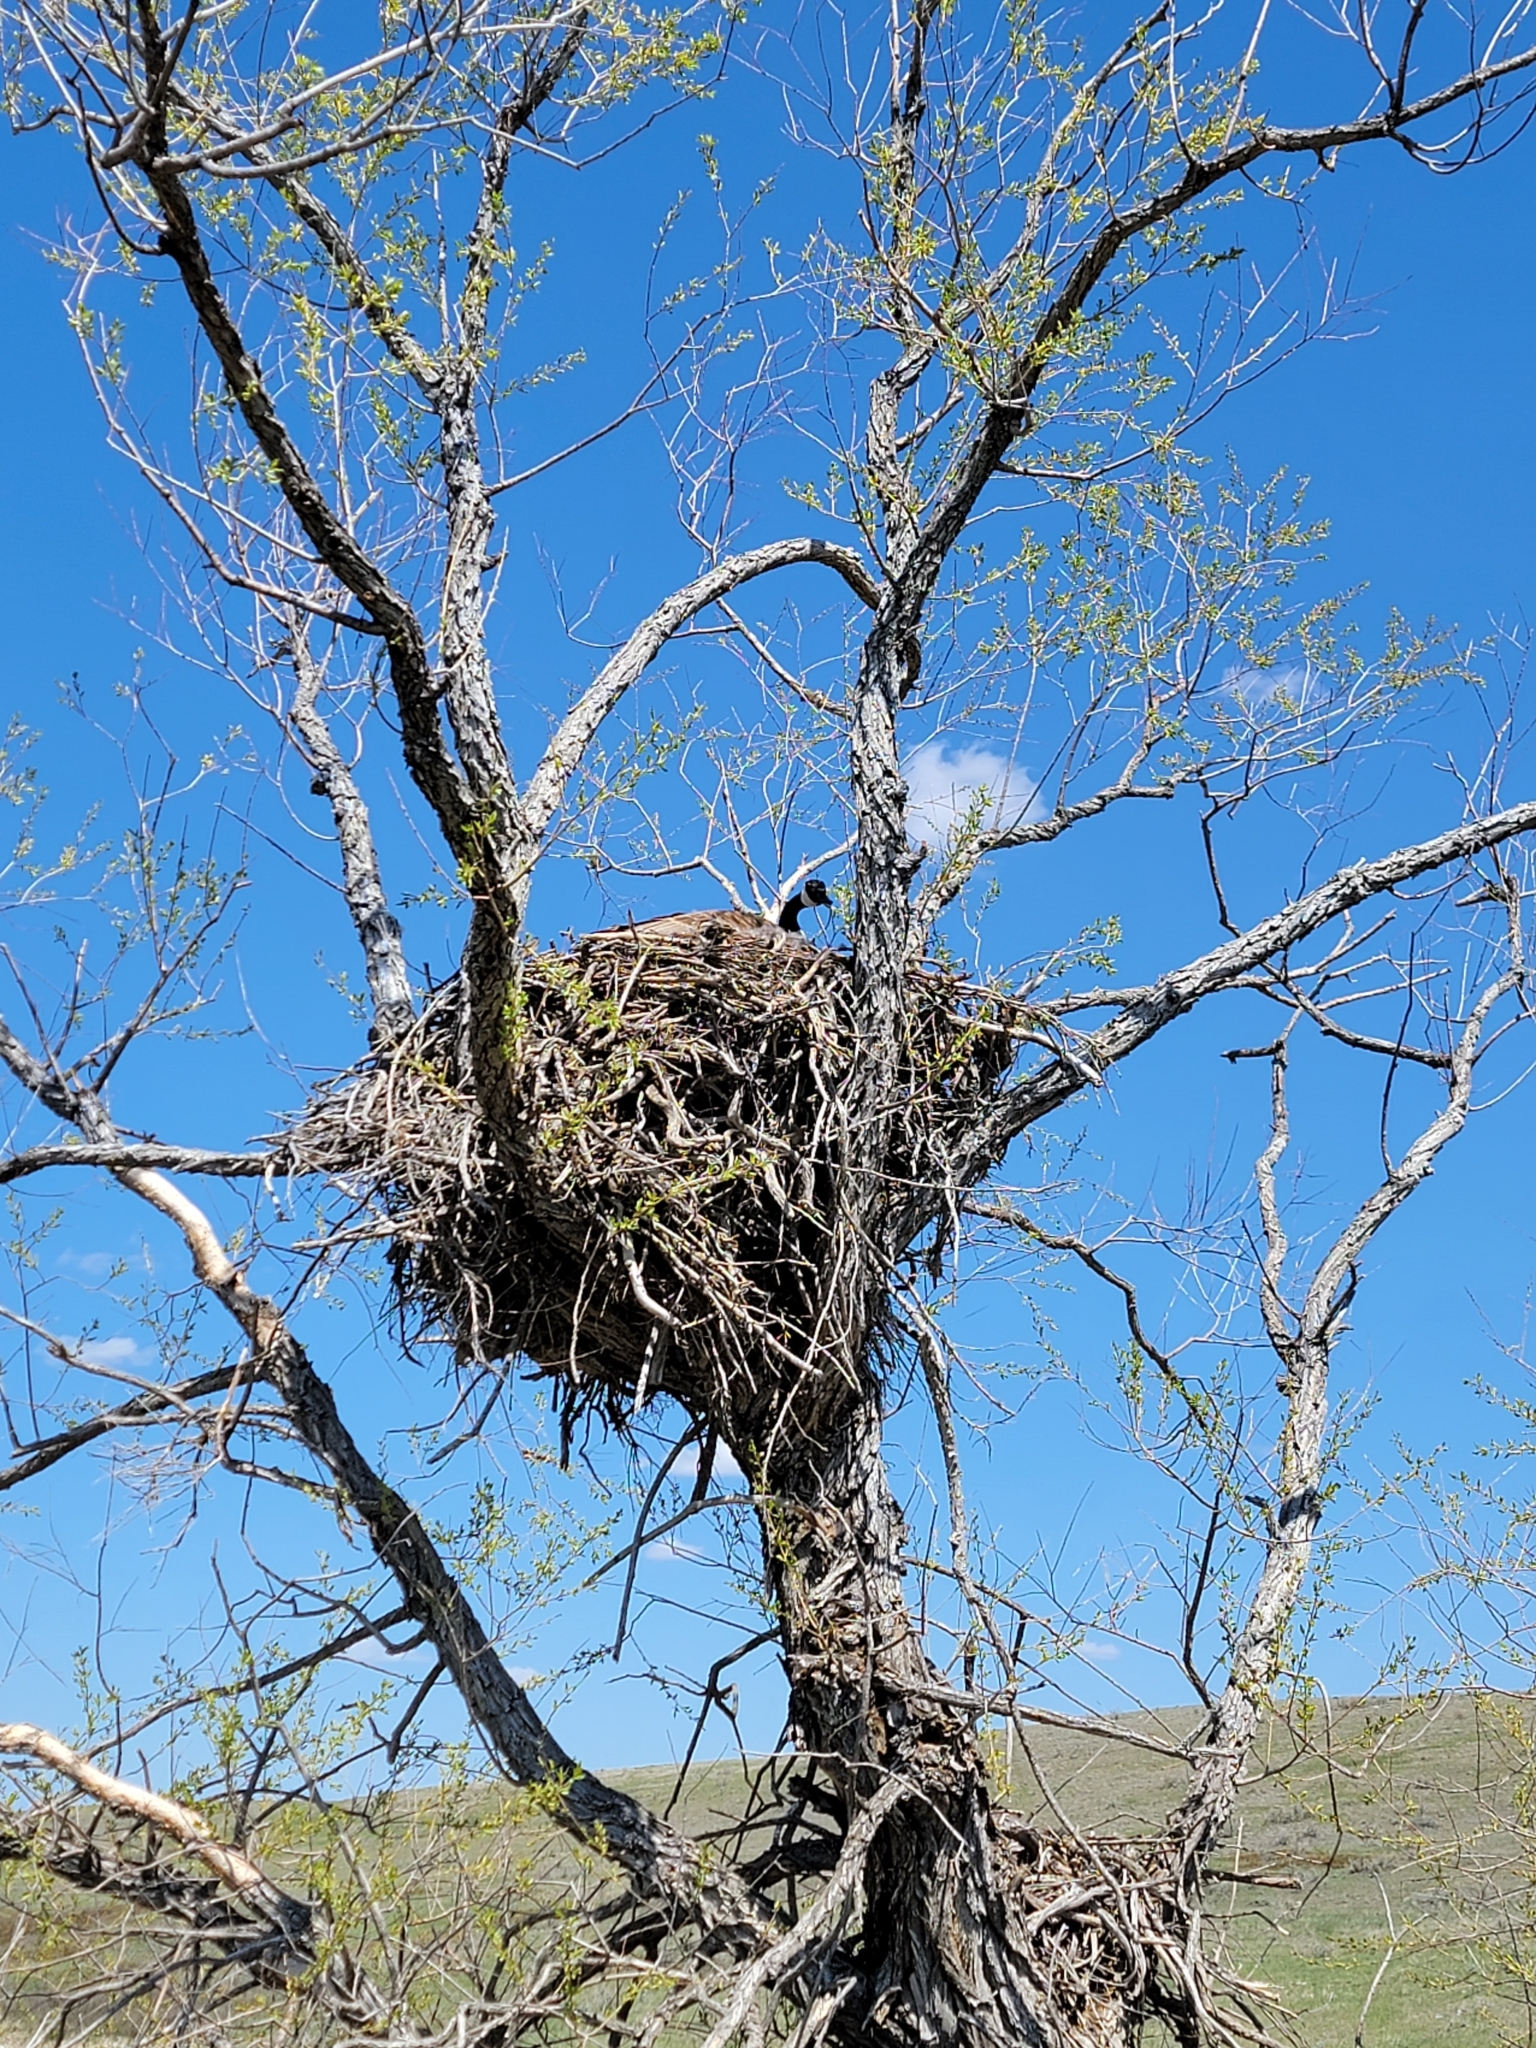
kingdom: Animalia
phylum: Chordata
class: Aves
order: Anseriformes
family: Anatidae
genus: Branta
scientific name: Branta canadensis
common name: Canada goose
